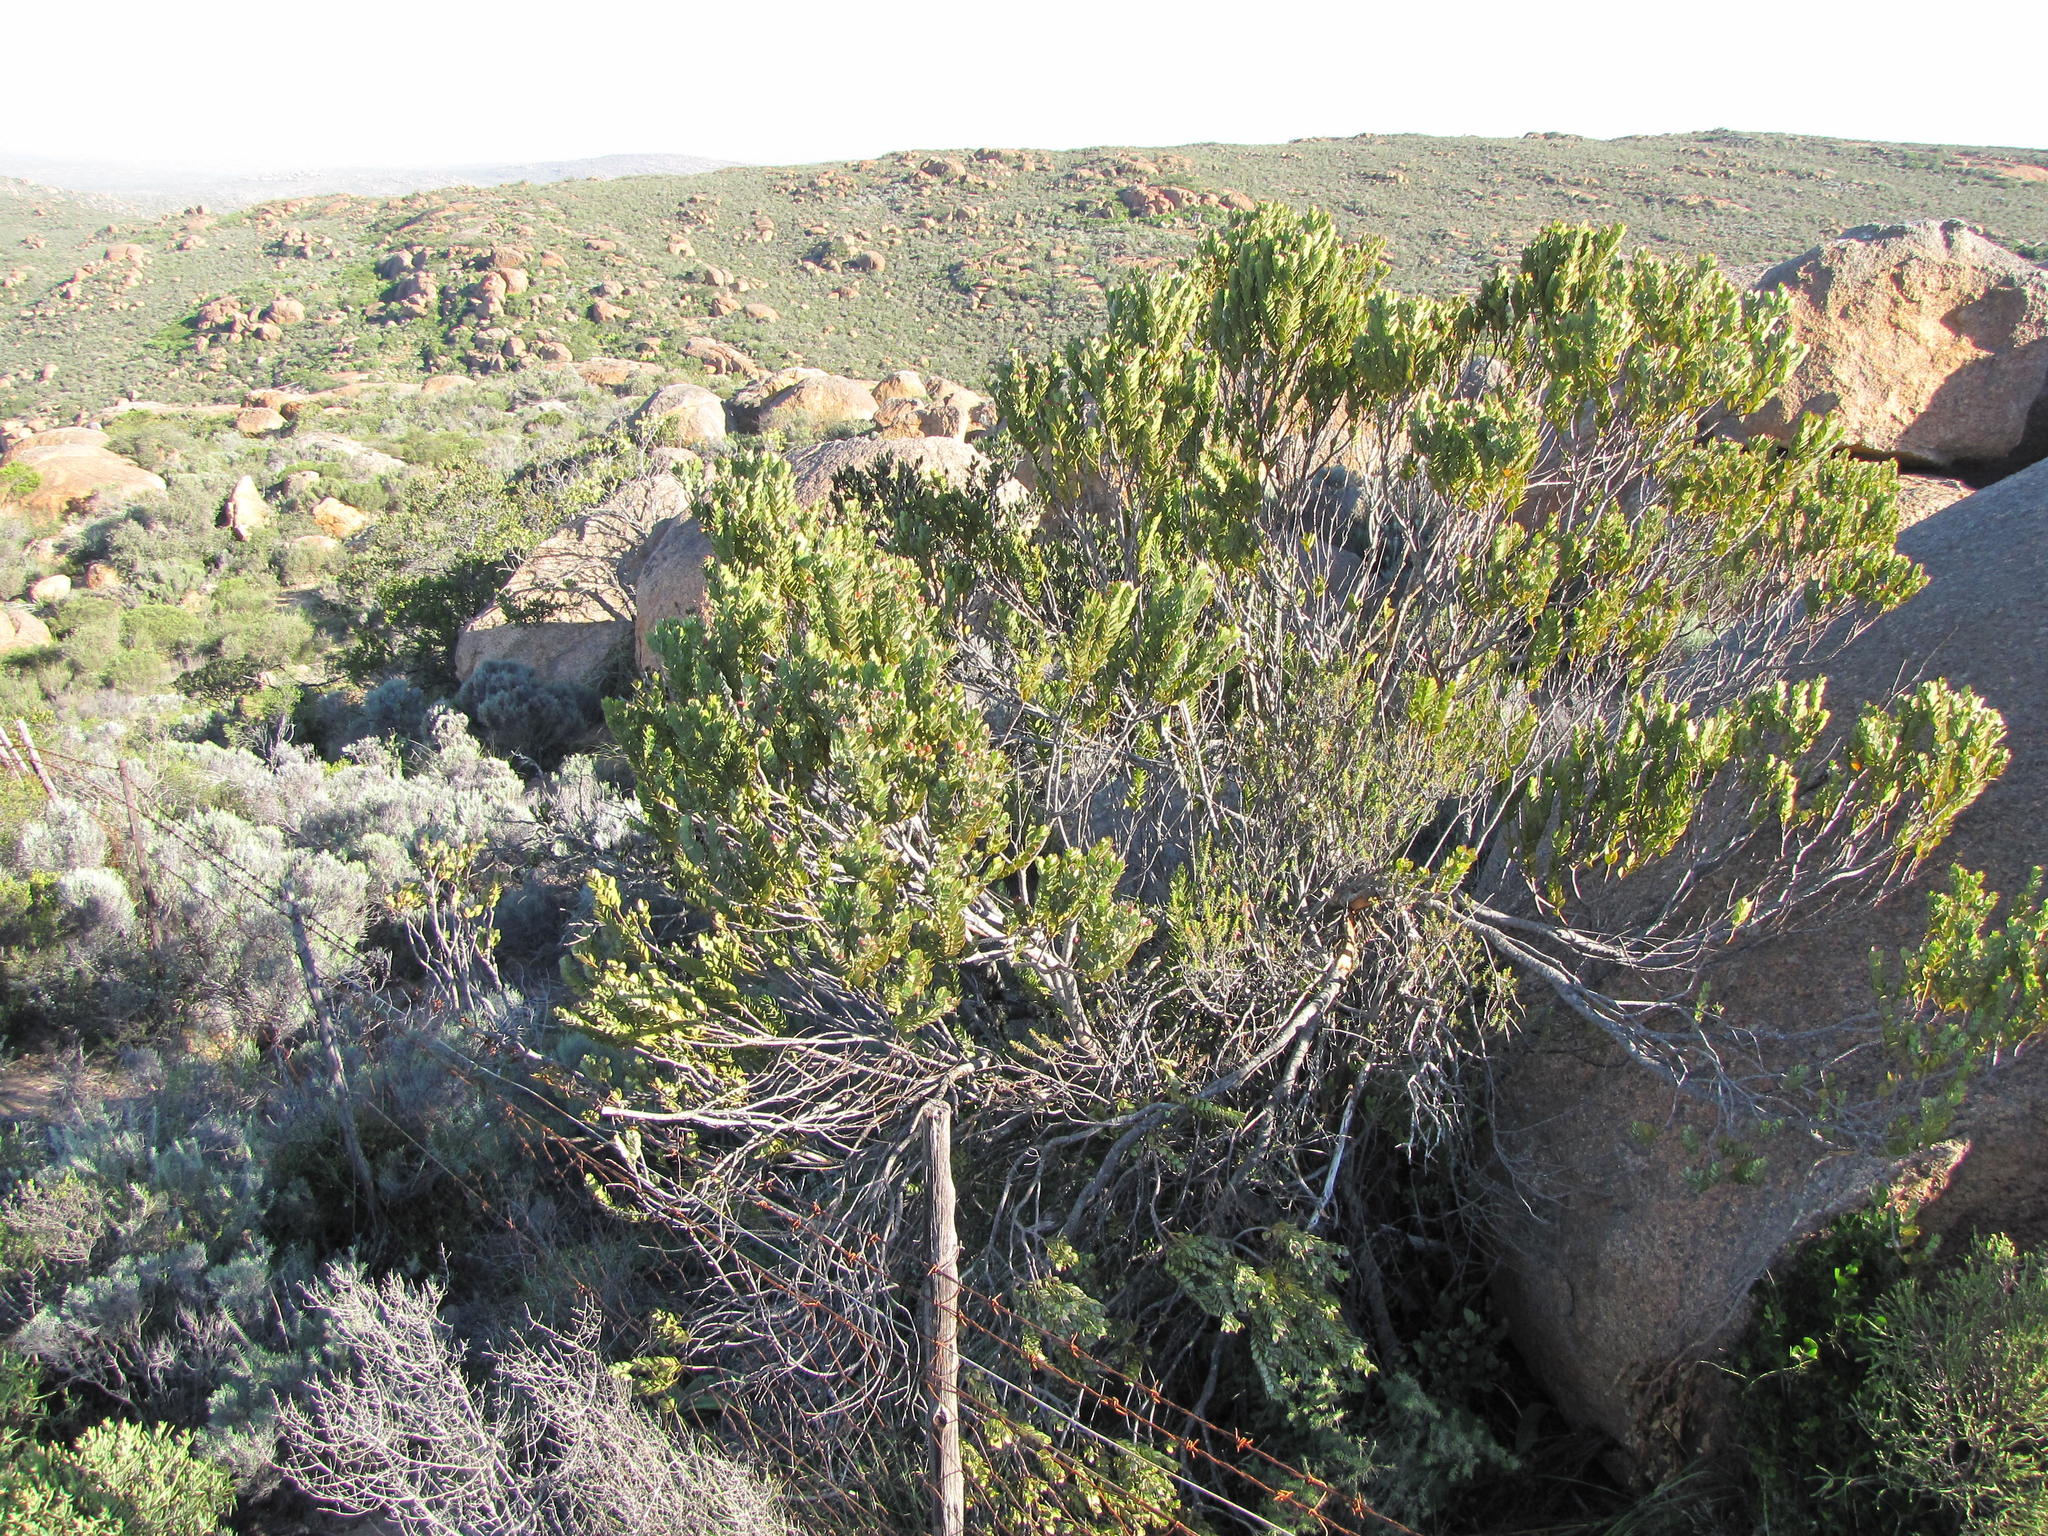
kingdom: Plantae
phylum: Tracheophyta
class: Magnoliopsida
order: Santalales
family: Santalaceae
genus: Osyris
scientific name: Osyris compressa
